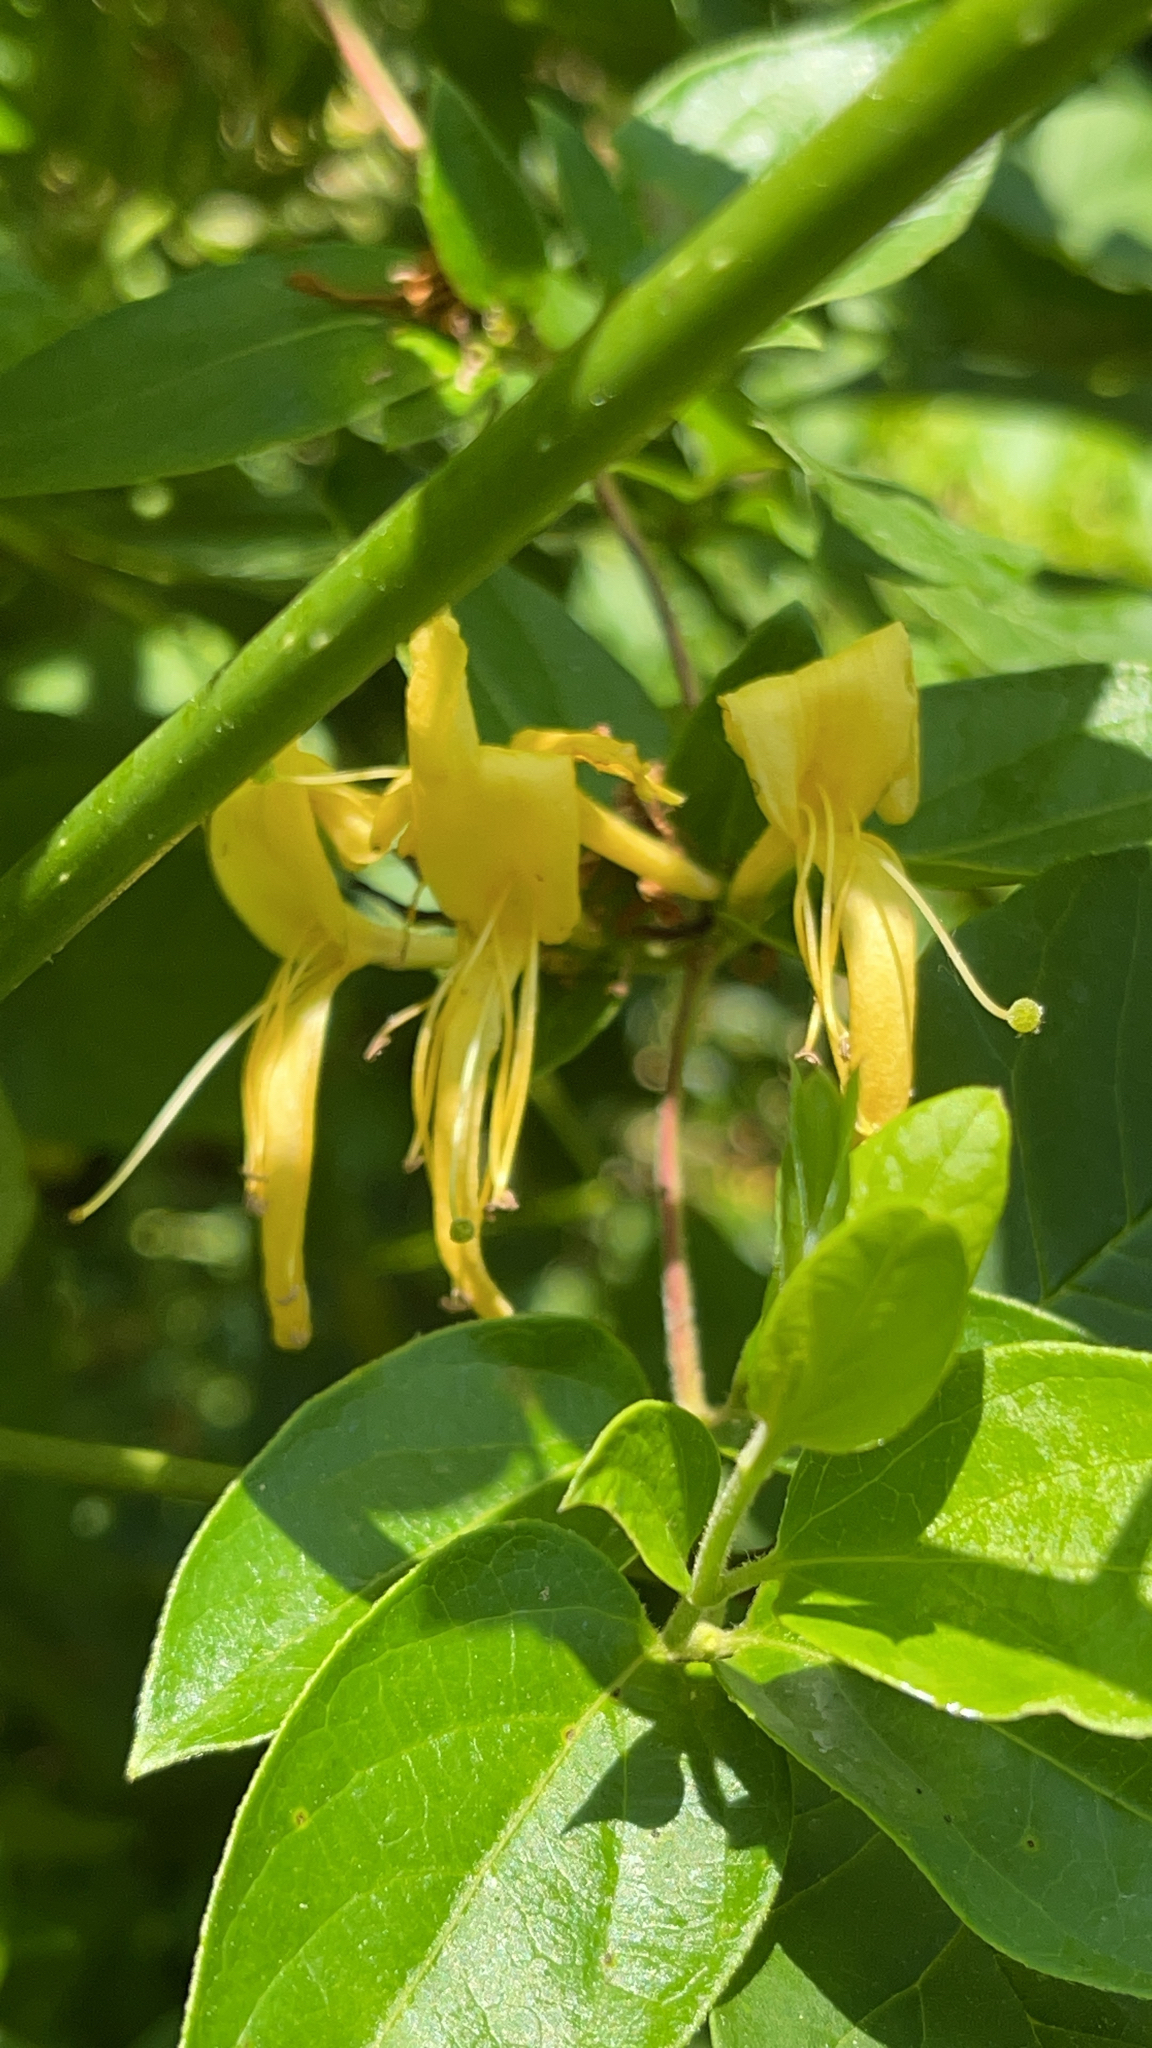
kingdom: Plantae
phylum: Tracheophyta
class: Magnoliopsida
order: Dipsacales
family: Caprifoliaceae
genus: Lonicera
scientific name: Lonicera japonica
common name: Japanese honeysuckle
